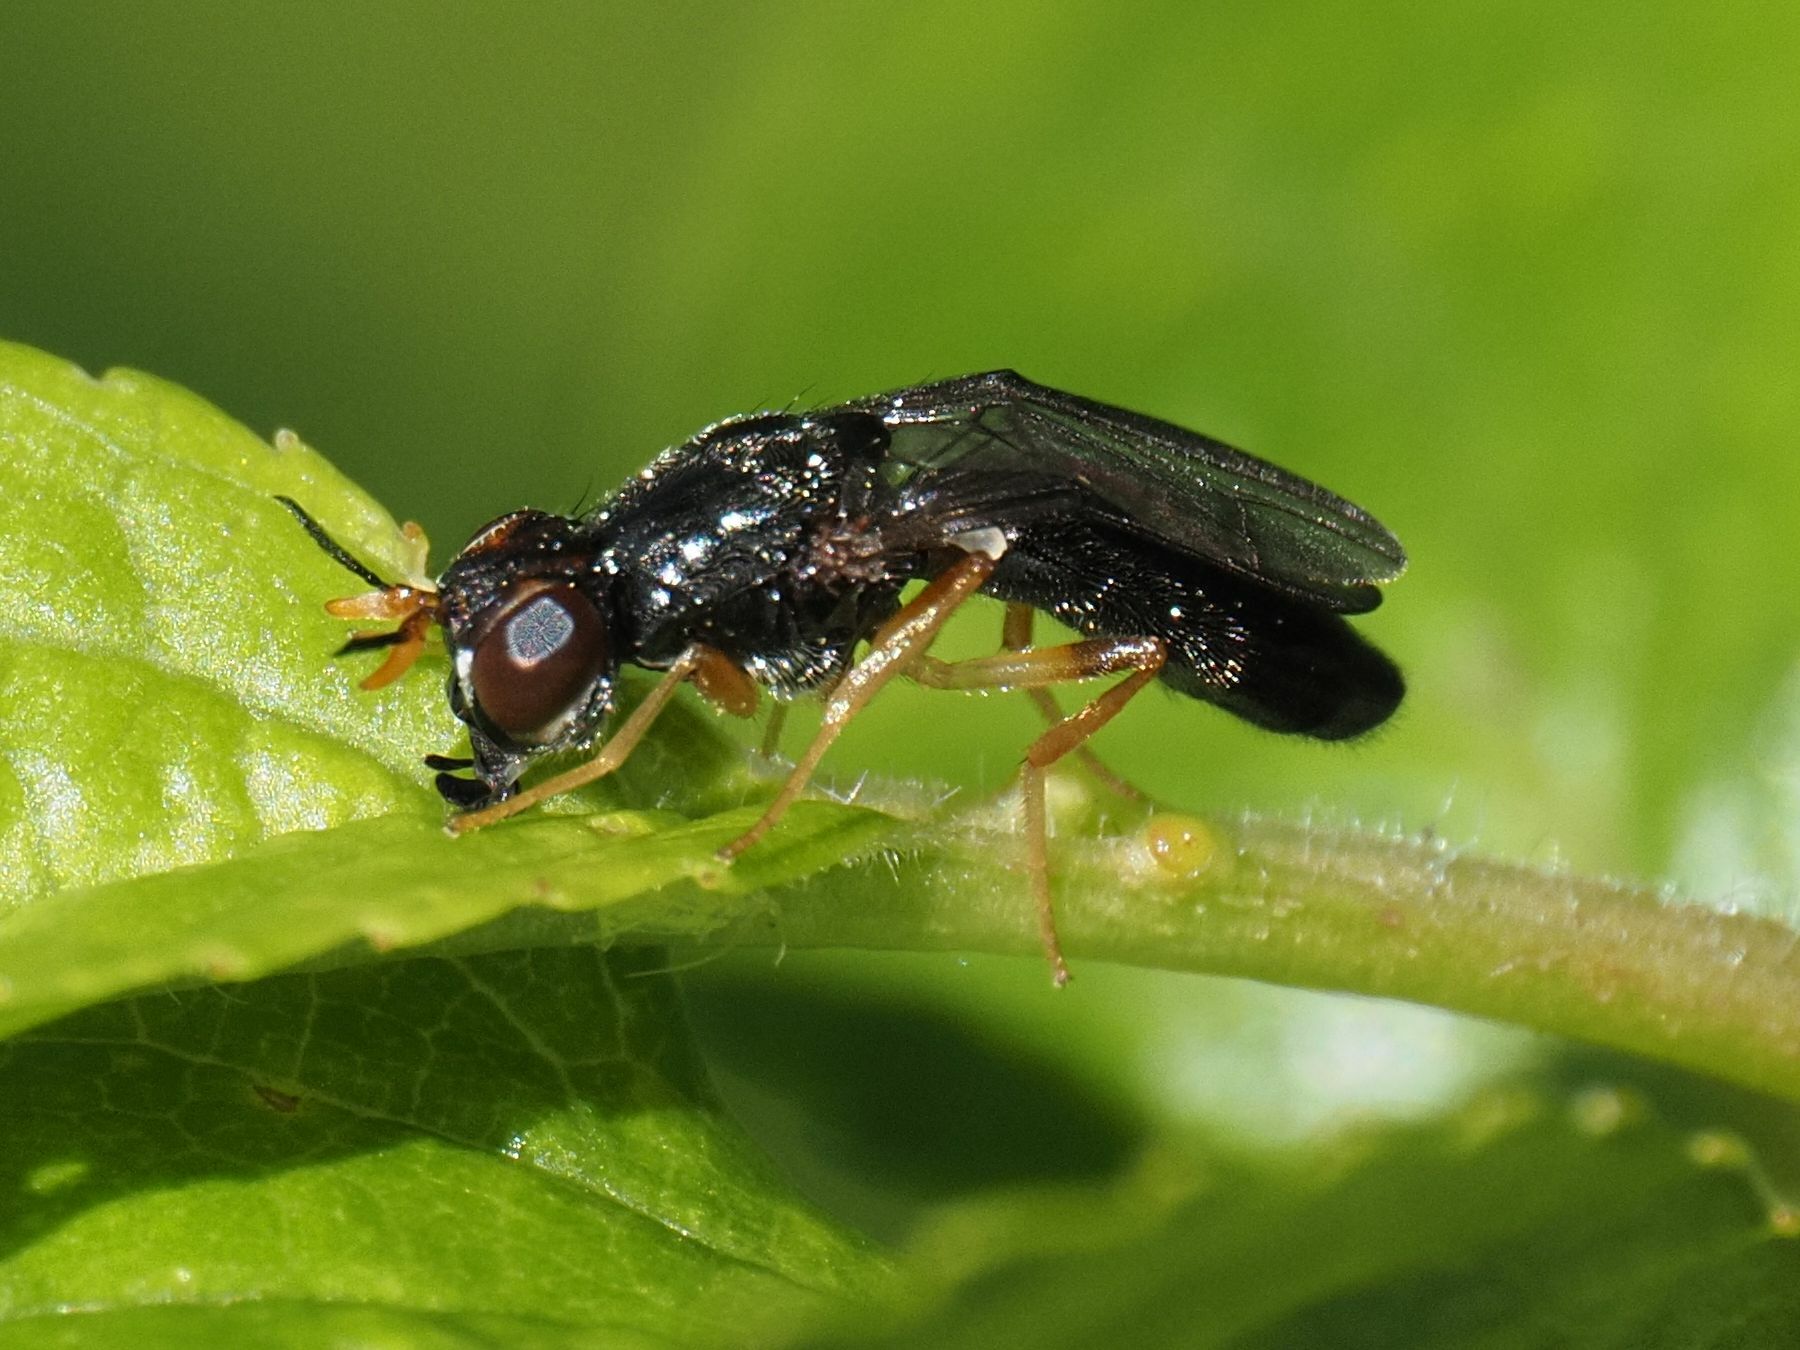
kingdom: Animalia
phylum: Arthropoda
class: Insecta
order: Diptera
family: Psilidae
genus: Chyliza
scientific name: Chyliza extenuata
